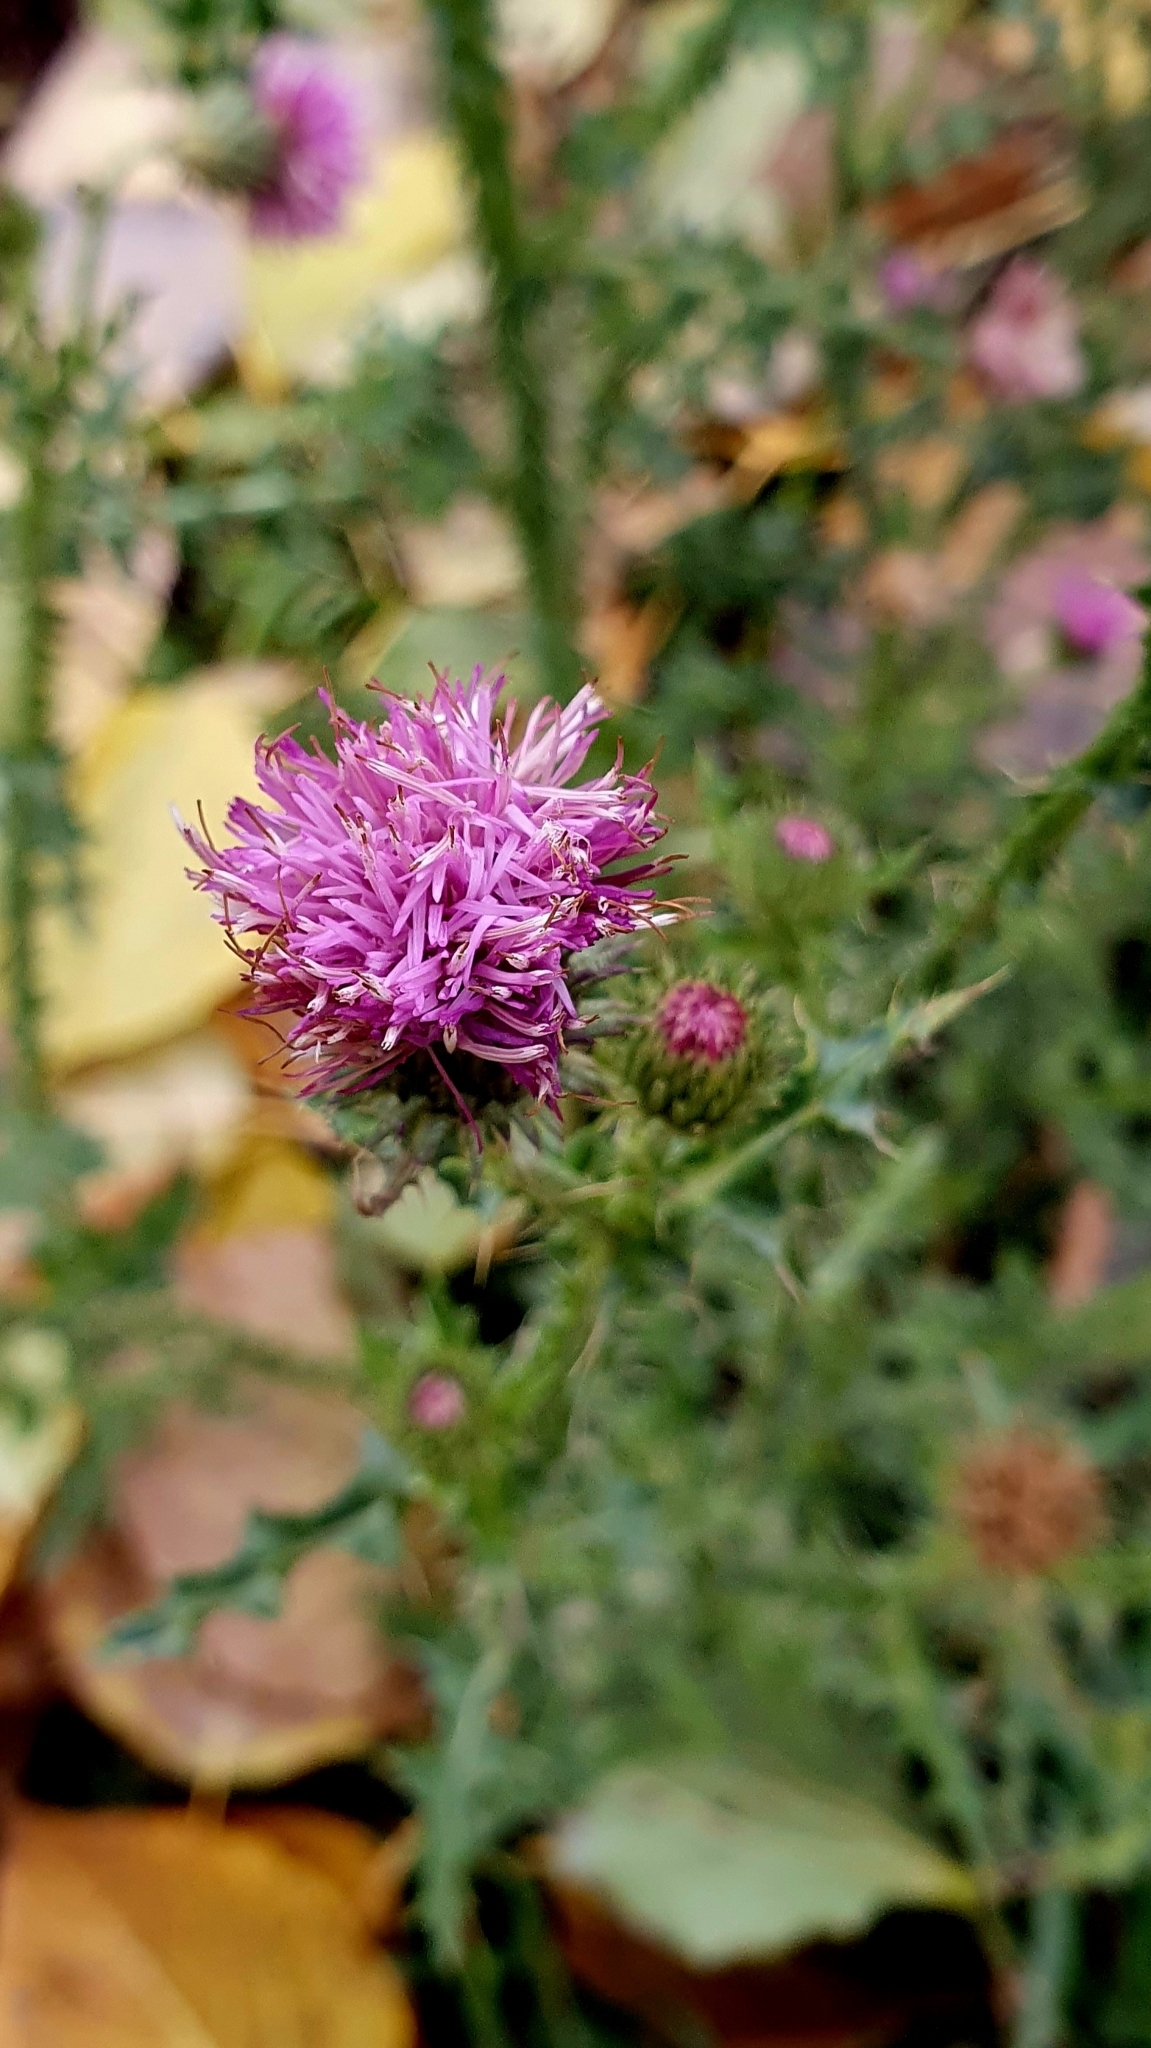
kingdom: Plantae
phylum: Tracheophyta
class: Magnoliopsida
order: Asterales
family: Asteraceae
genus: Carduus
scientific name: Carduus acanthoides
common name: Plumeless thistle
